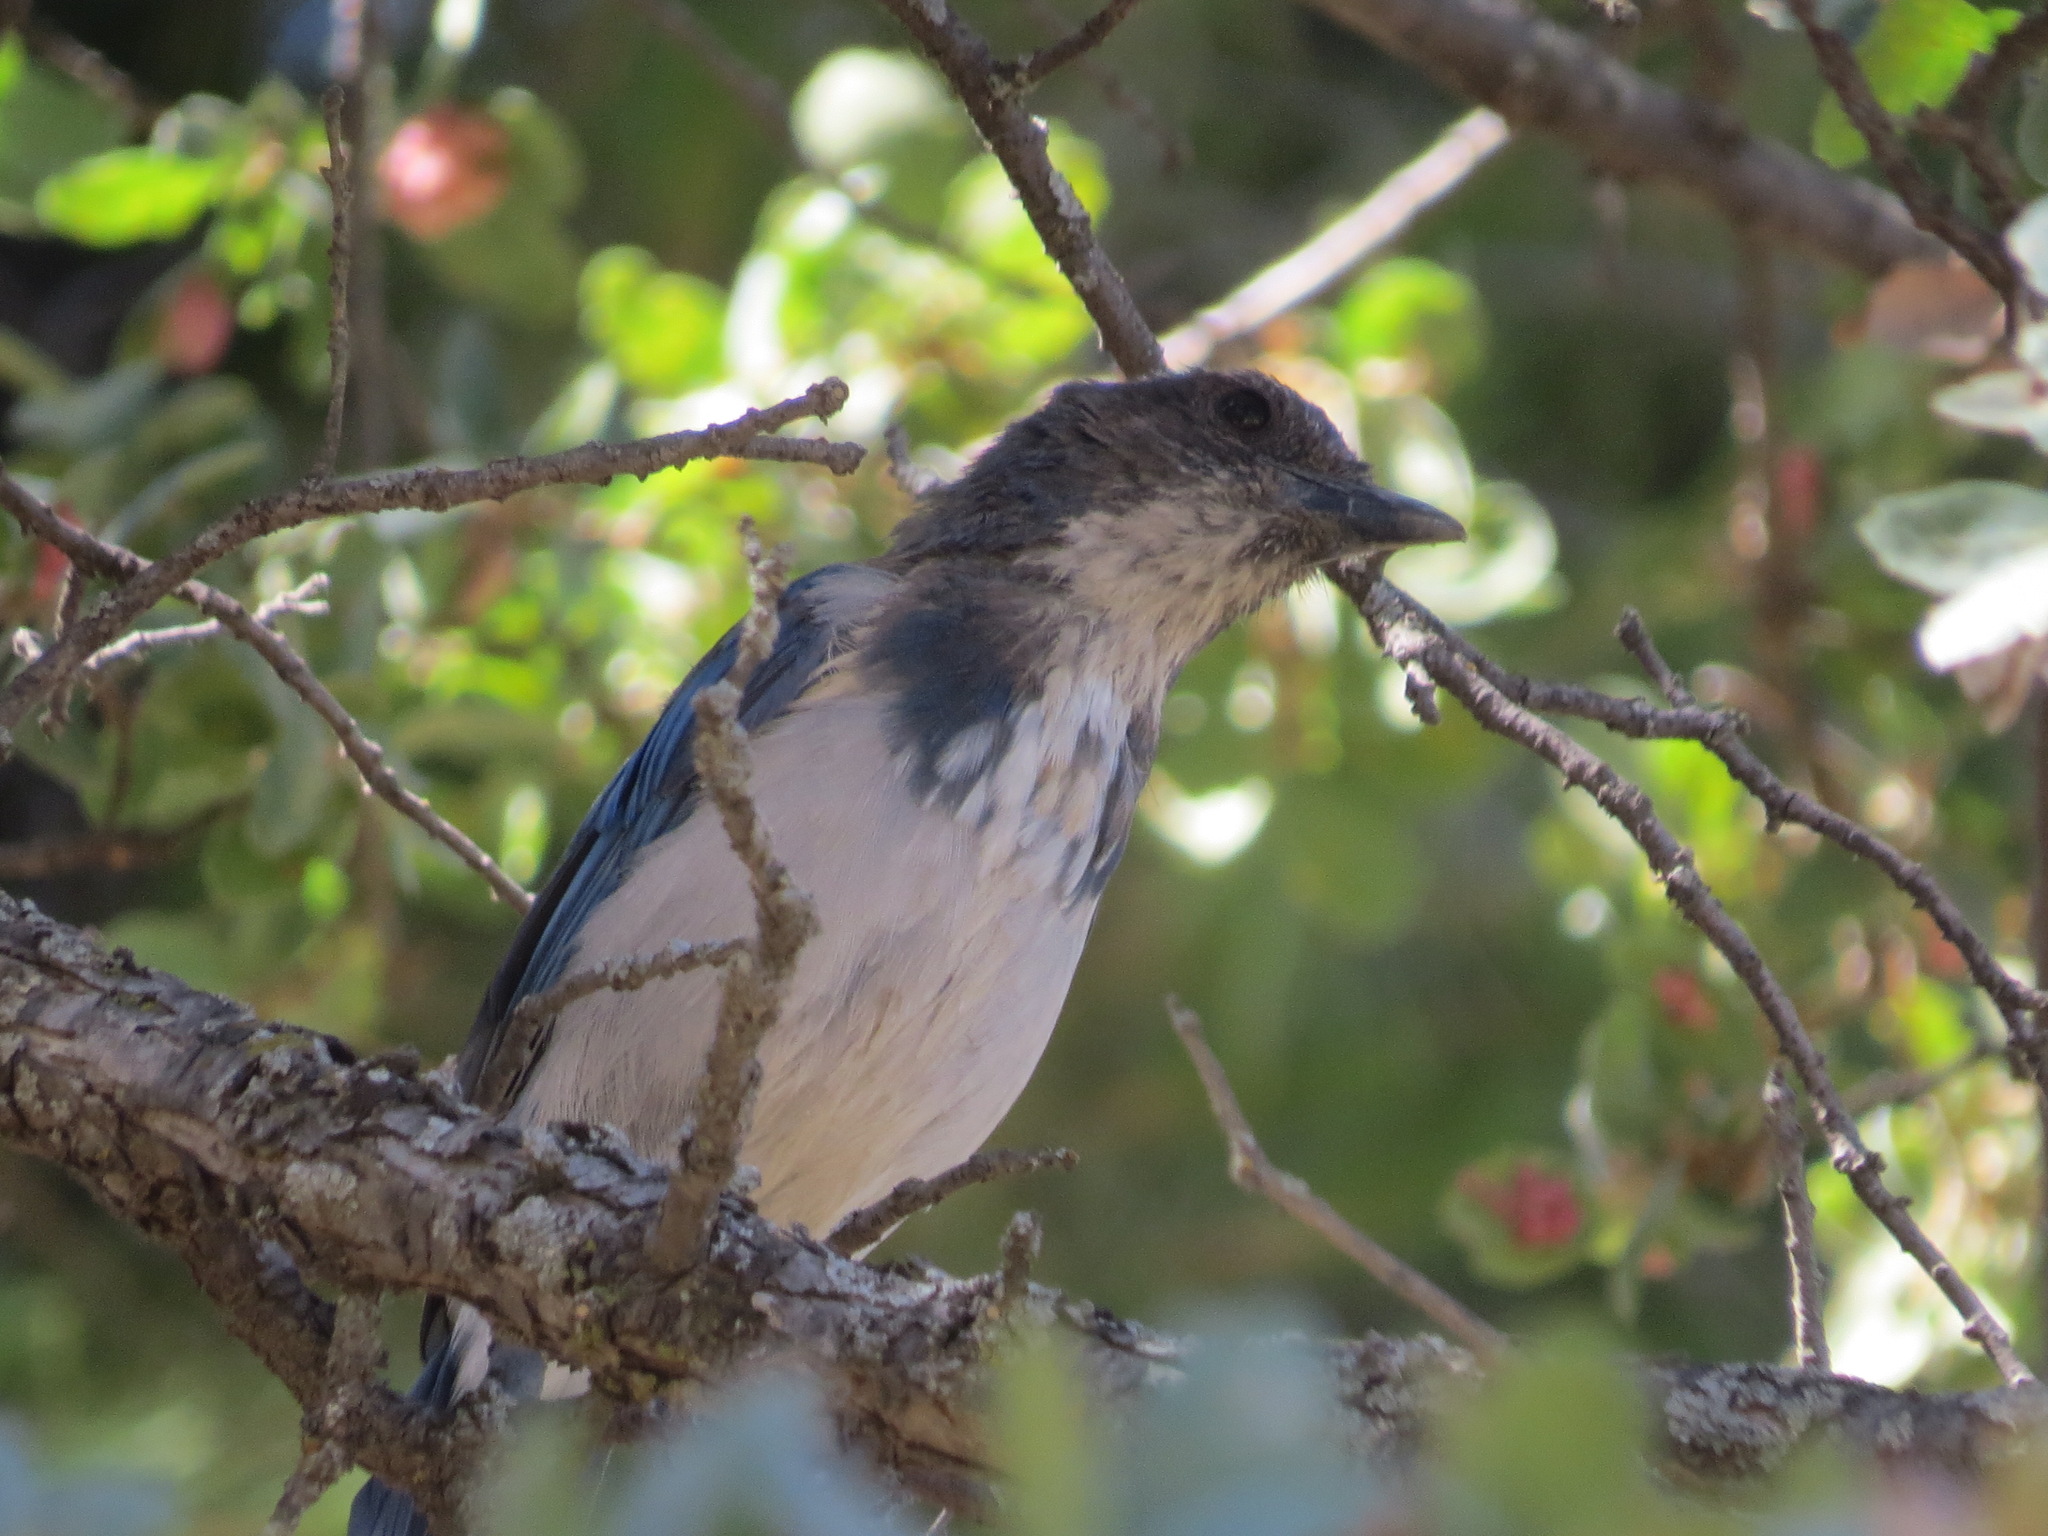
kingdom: Animalia
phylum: Chordata
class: Aves
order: Passeriformes
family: Corvidae
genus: Aphelocoma
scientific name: Aphelocoma californica
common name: California scrub-jay
